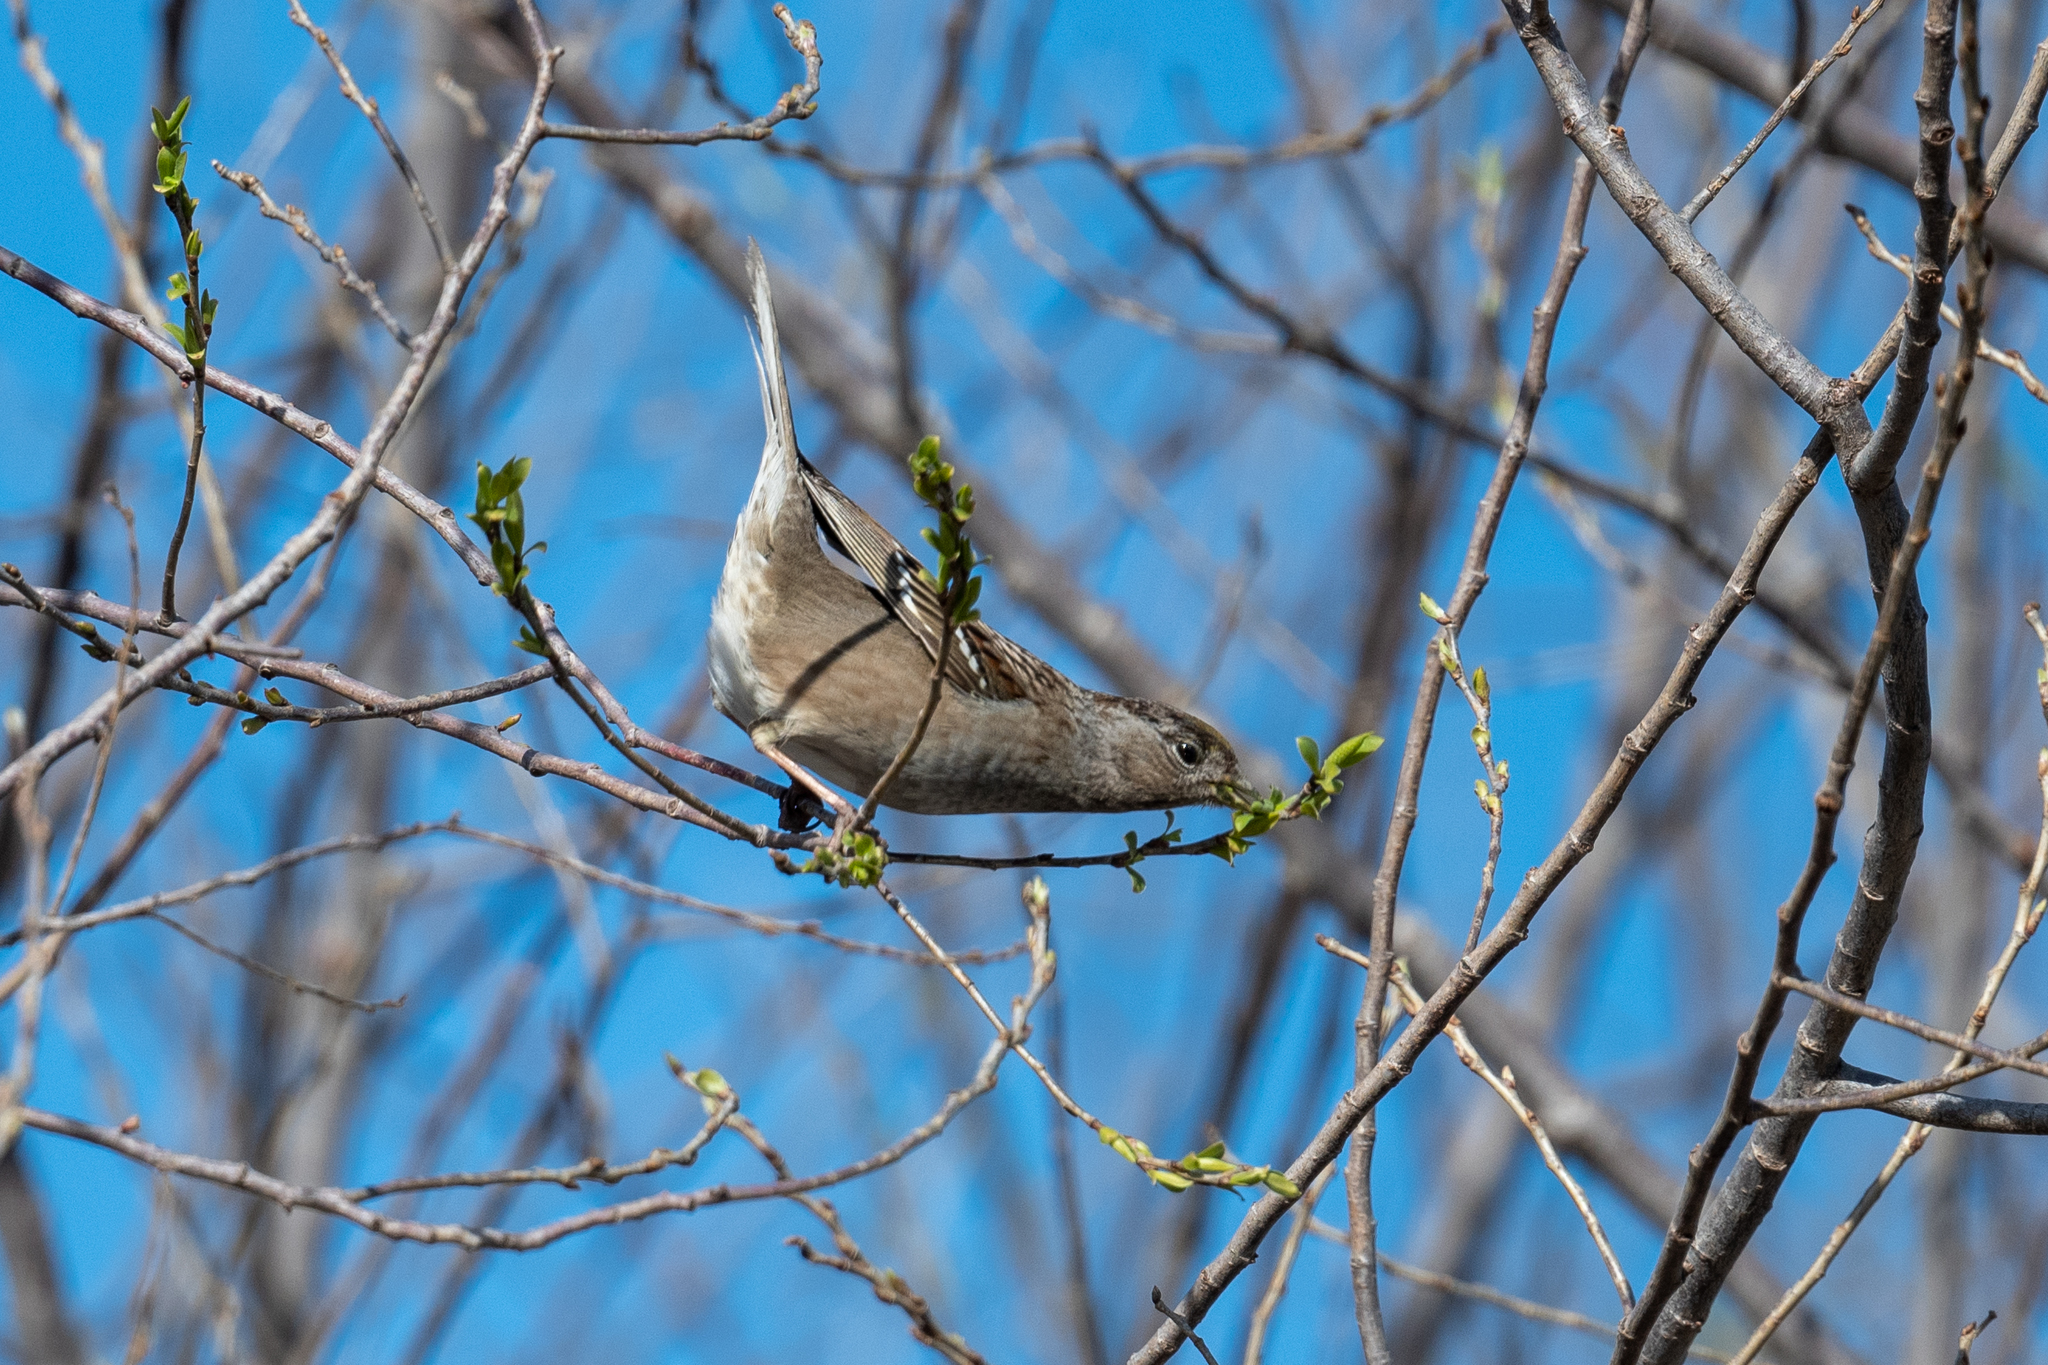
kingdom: Animalia
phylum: Chordata
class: Aves
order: Passeriformes
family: Passerellidae
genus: Zonotrichia
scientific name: Zonotrichia atricapilla
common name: Golden-crowned sparrow
